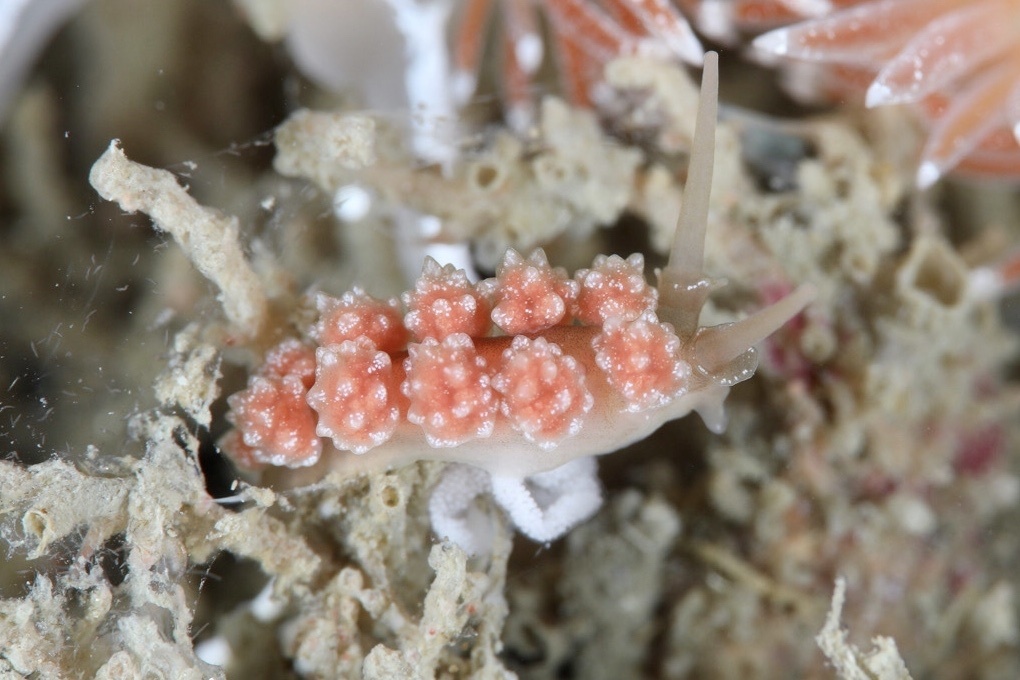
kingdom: Animalia
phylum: Mollusca
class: Gastropoda
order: Nudibranchia
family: Dotidae
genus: Doto
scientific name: Doto fragilis
